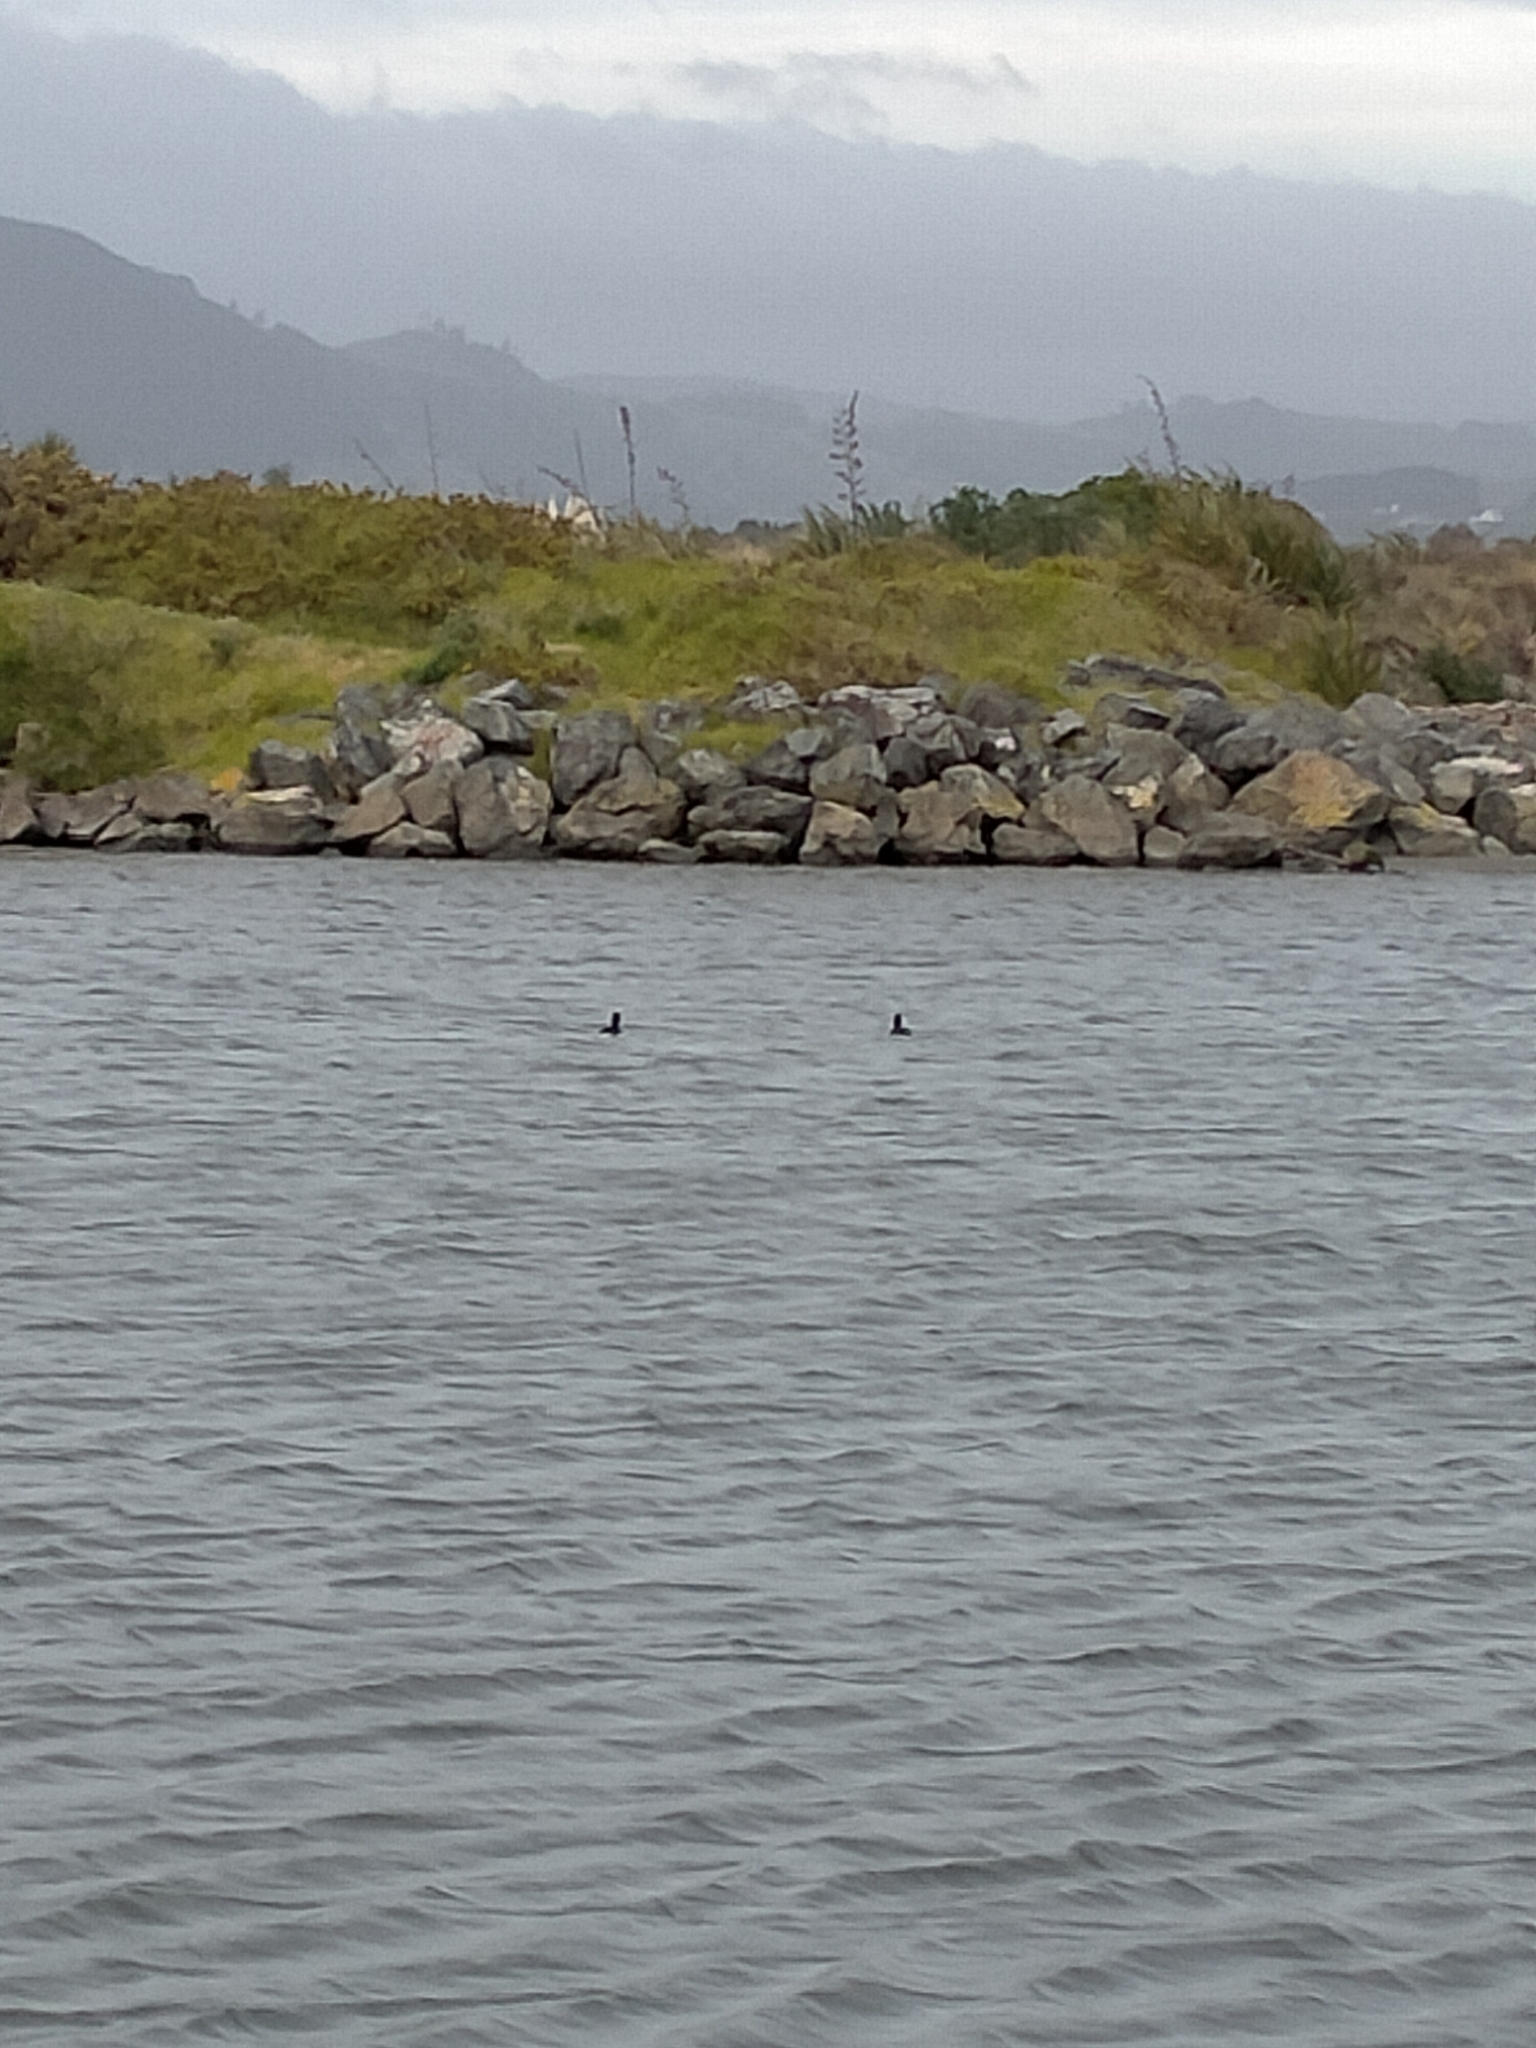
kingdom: Animalia
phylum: Chordata
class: Aves
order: Anseriformes
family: Anatidae
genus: Aythya
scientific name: Aythya novaeseelandiae
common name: New zealand scaup
